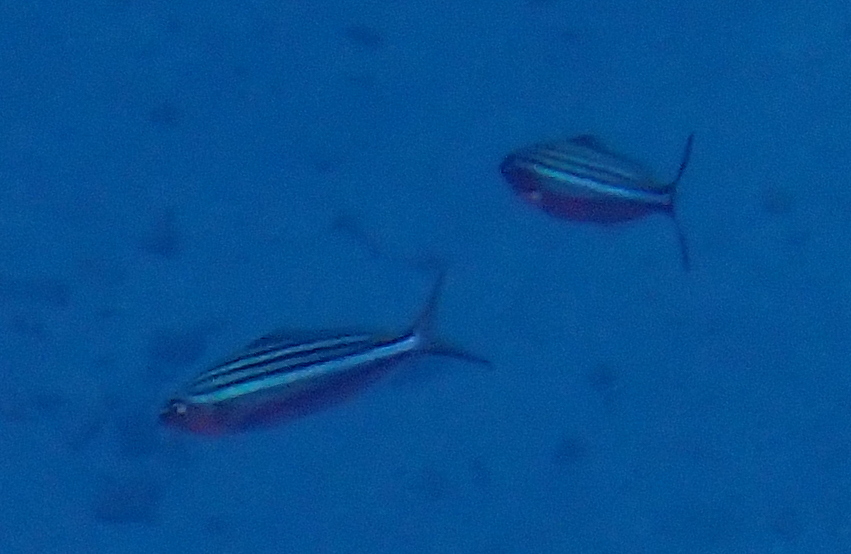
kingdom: Animalia
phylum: Chordata
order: Perciformes
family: Caesionidae
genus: Caesio
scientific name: Caesio striata
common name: Striated fusilier
